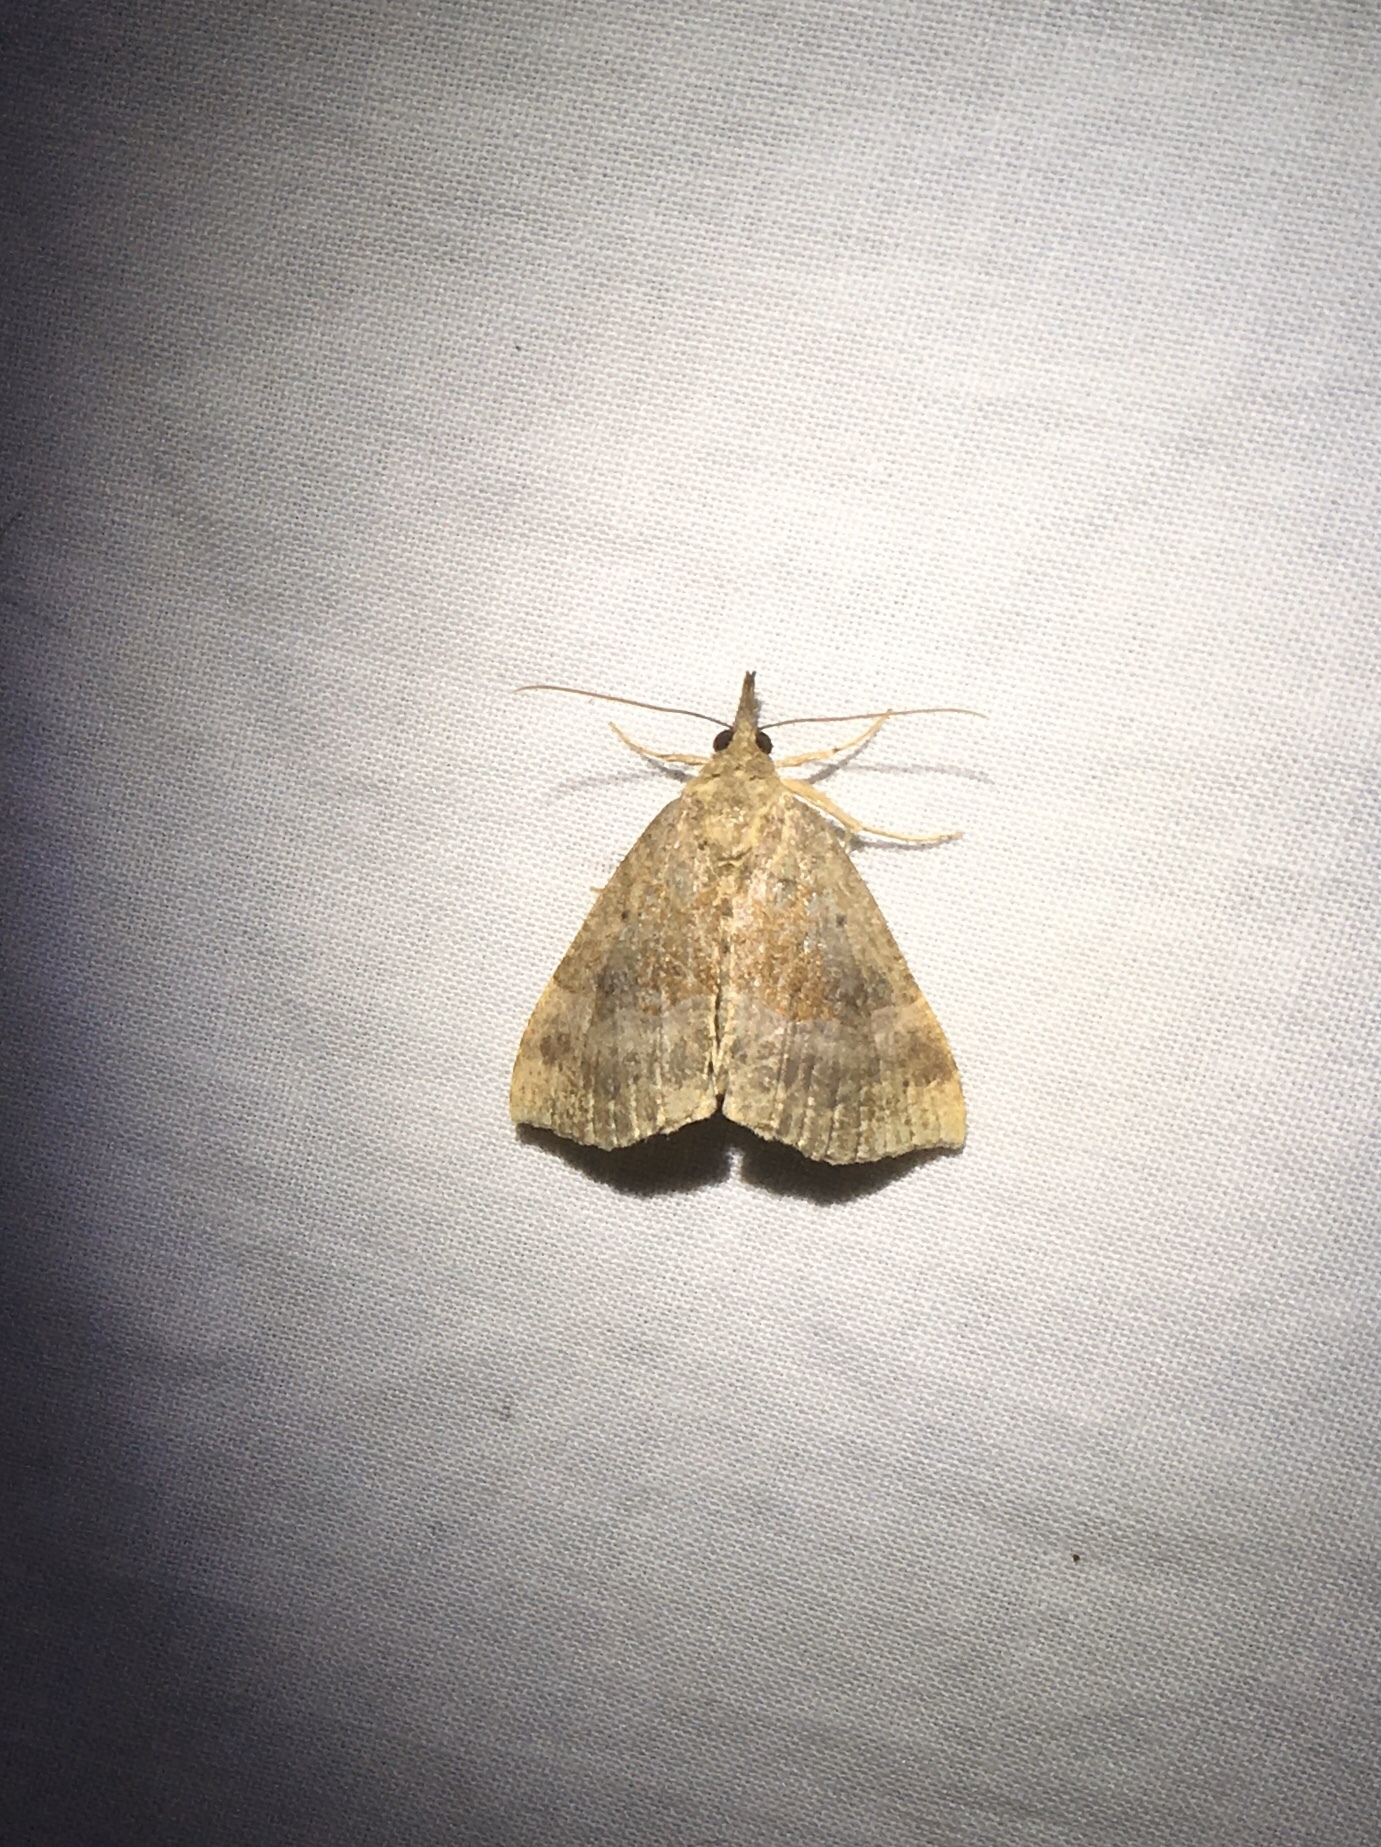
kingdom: Animalia
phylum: Arthropoda
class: Insecta
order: Lepidoptera
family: Erebidae
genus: Hypena
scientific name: Hypena madefactalis
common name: Gray-edged snout
